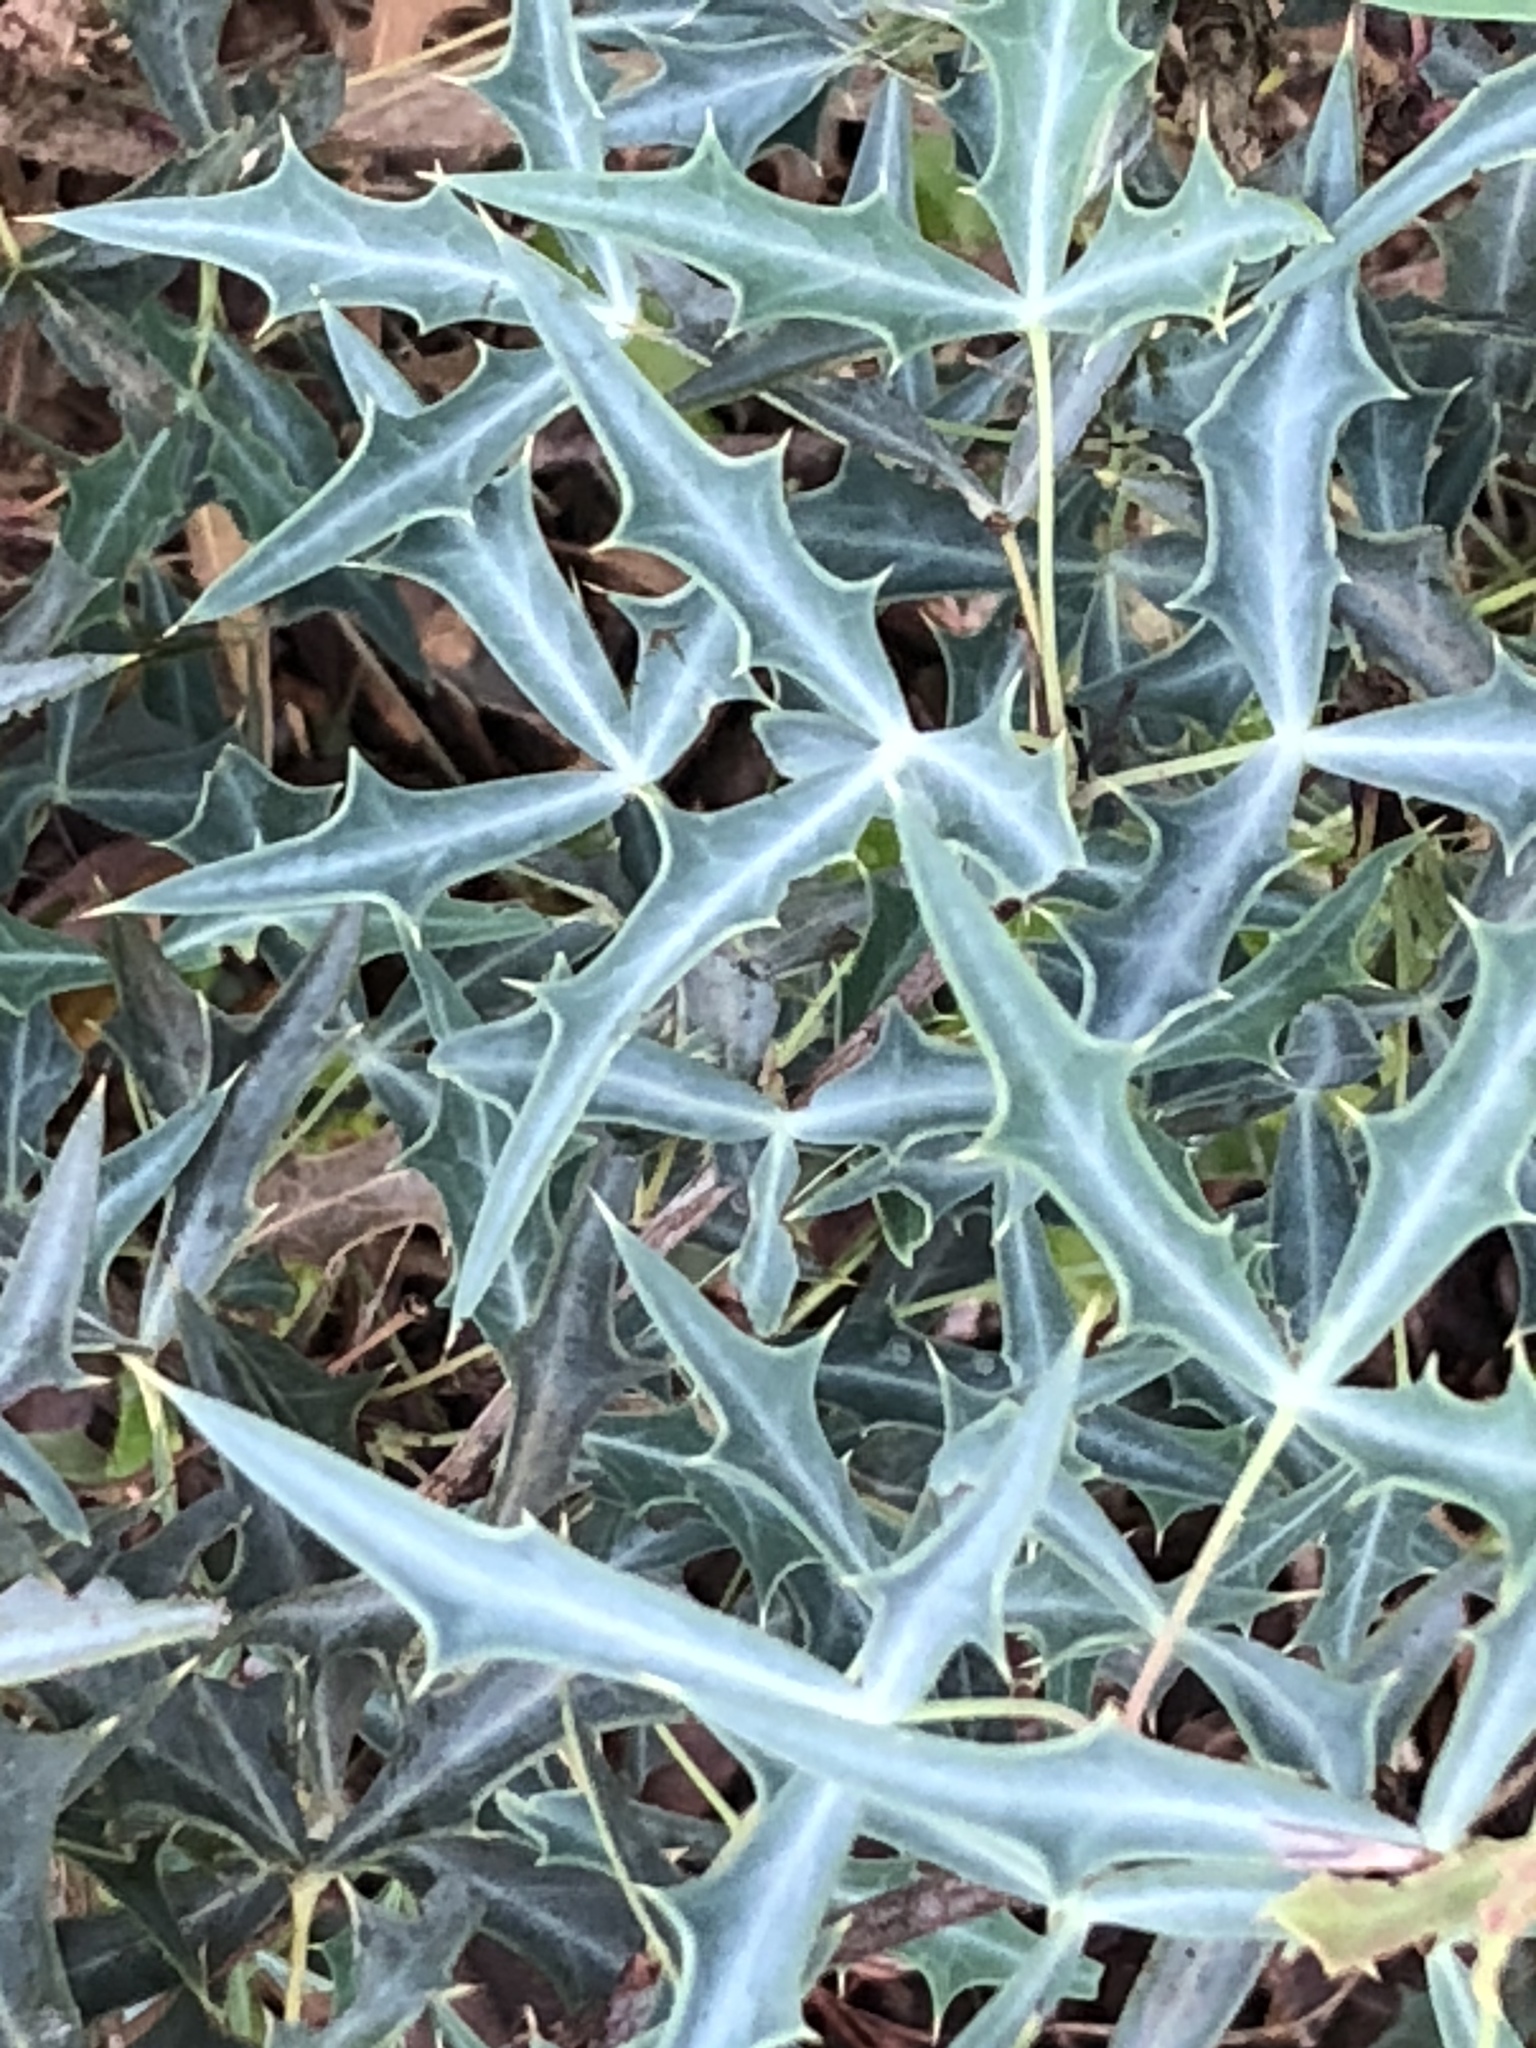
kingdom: Plantae
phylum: Tracheophyta
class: Magnoliopsida
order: Ranunculales
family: Berberidaceae
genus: Alloberberis
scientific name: Alloberberis trifoliolata
